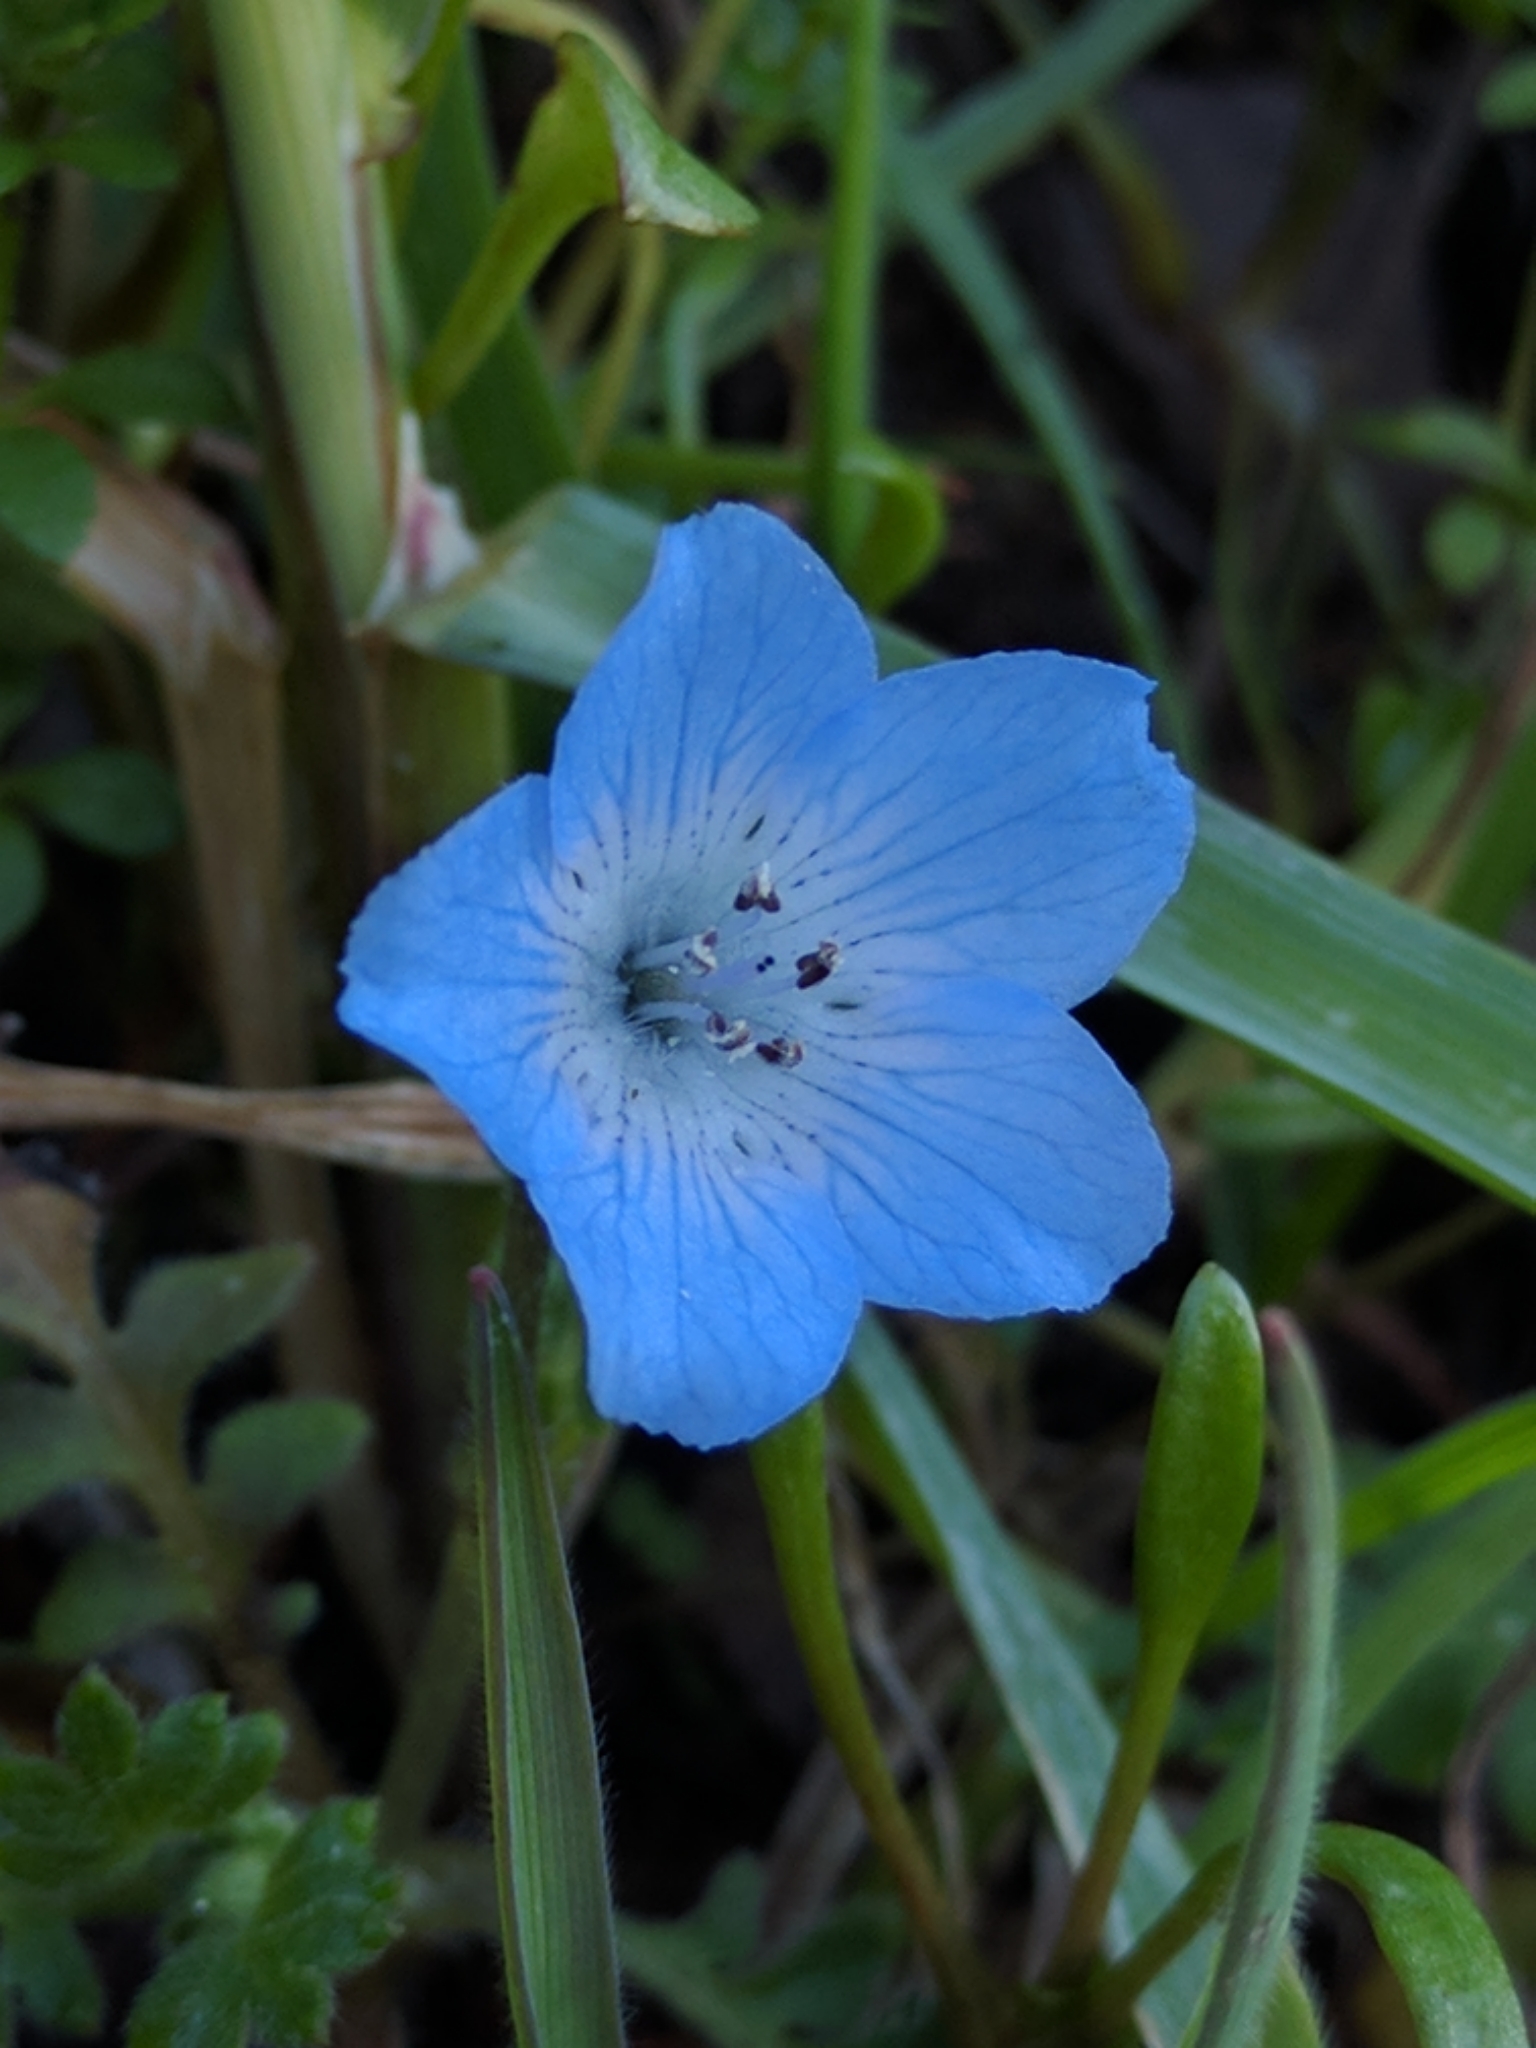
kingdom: Plantae
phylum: Tracheophyta
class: Magnoliopsida
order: Boraginales
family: Hydrophyllaceae
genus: Nemophila
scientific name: Nemophila menziesii
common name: Baby's-blue-eyes
